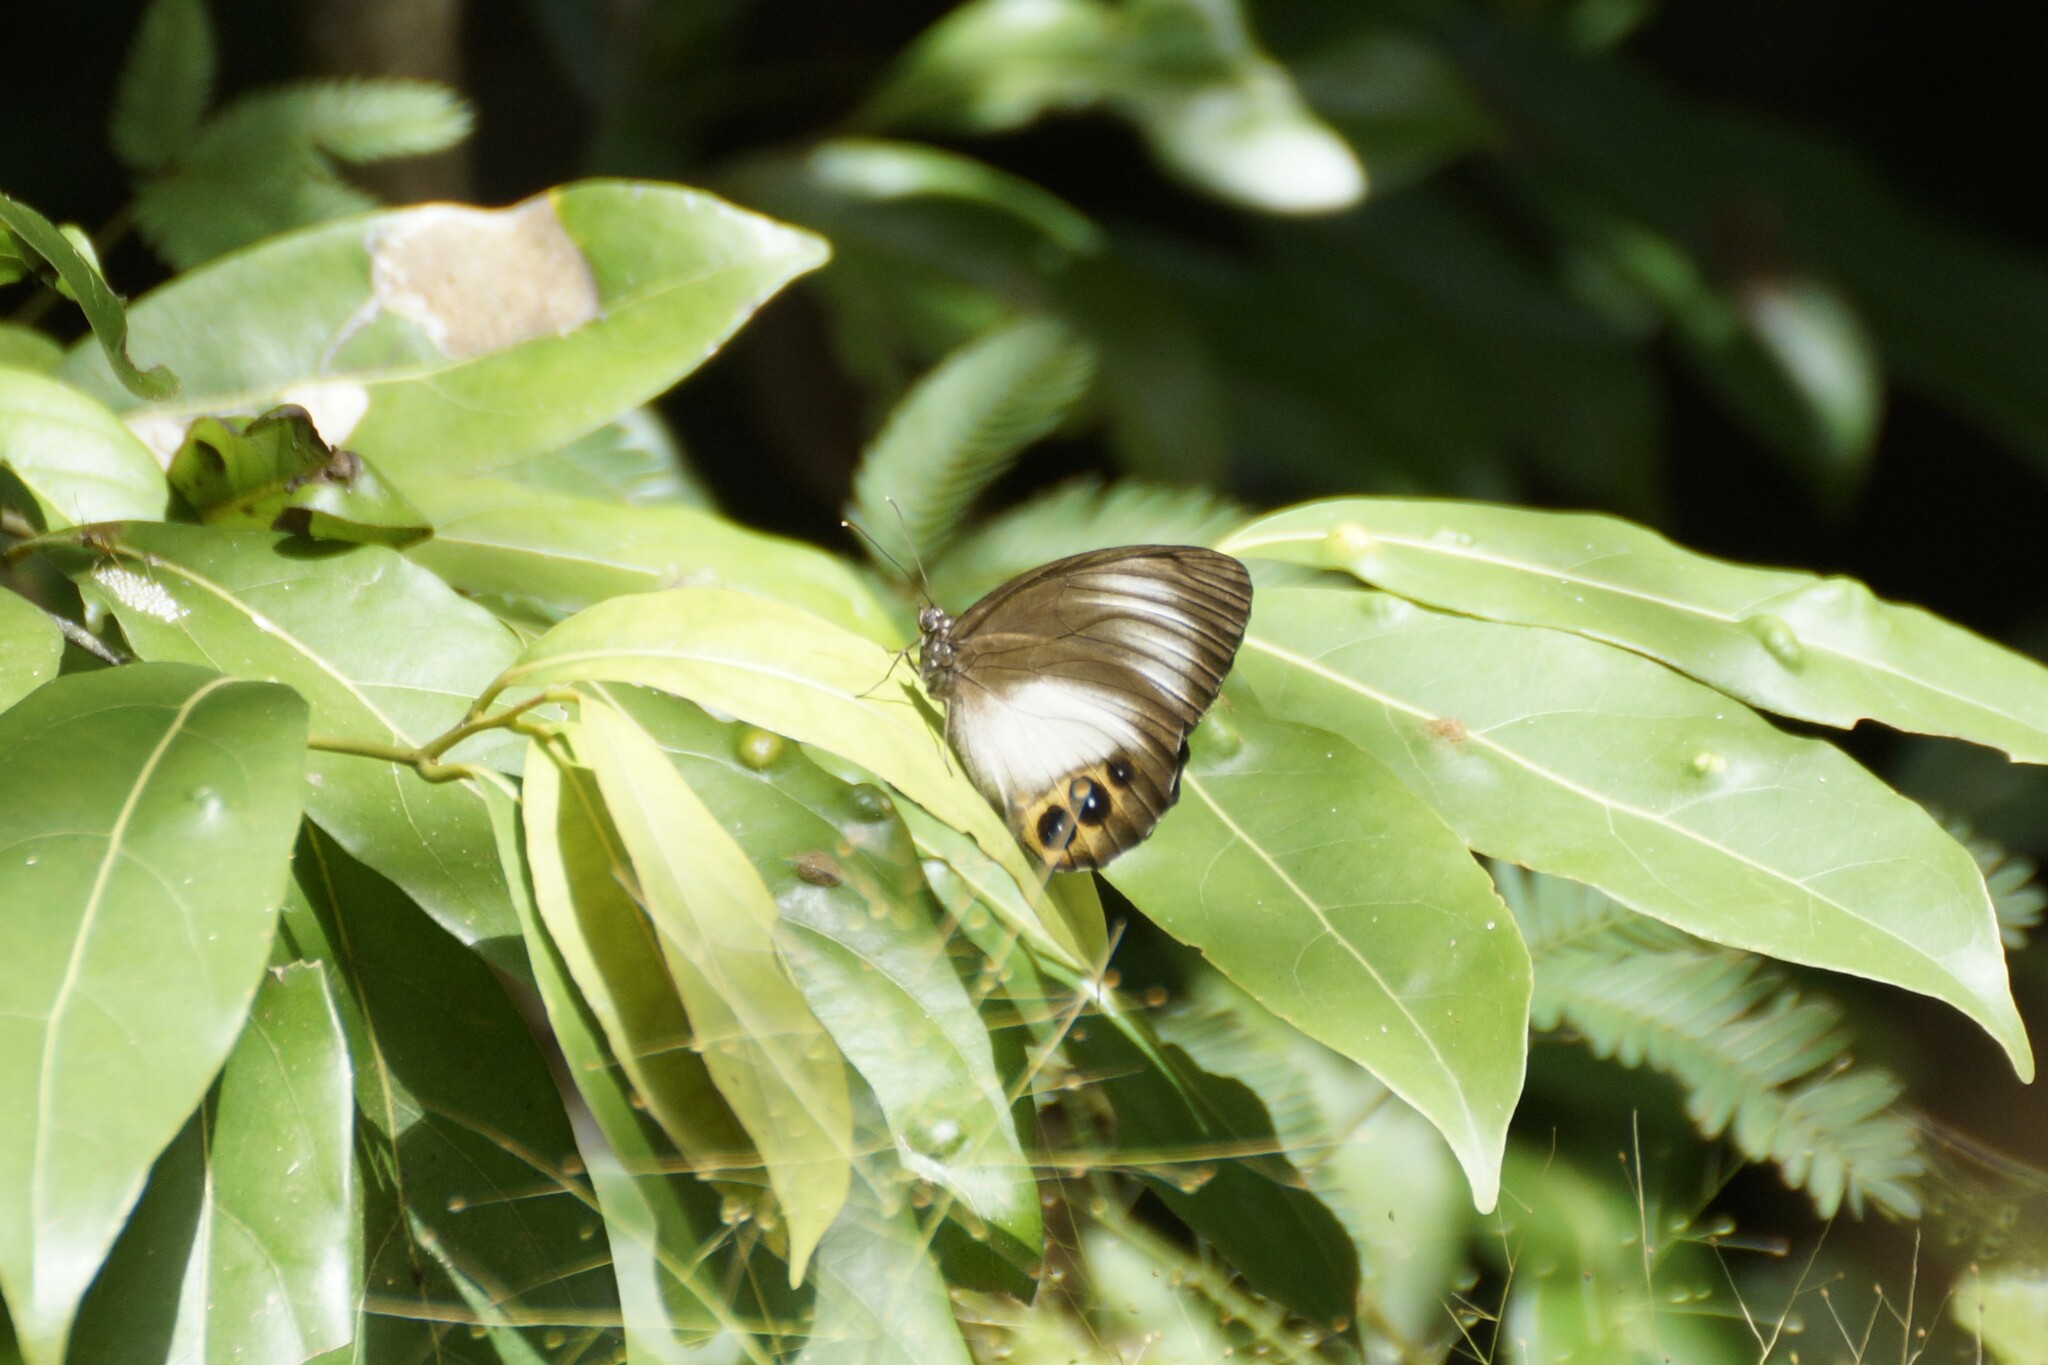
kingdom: Animalia
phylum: Arthropoda
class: Insecta
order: Lepidoptera
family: Nymphalidae
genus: Elymnias
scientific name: Elymnias agondas
